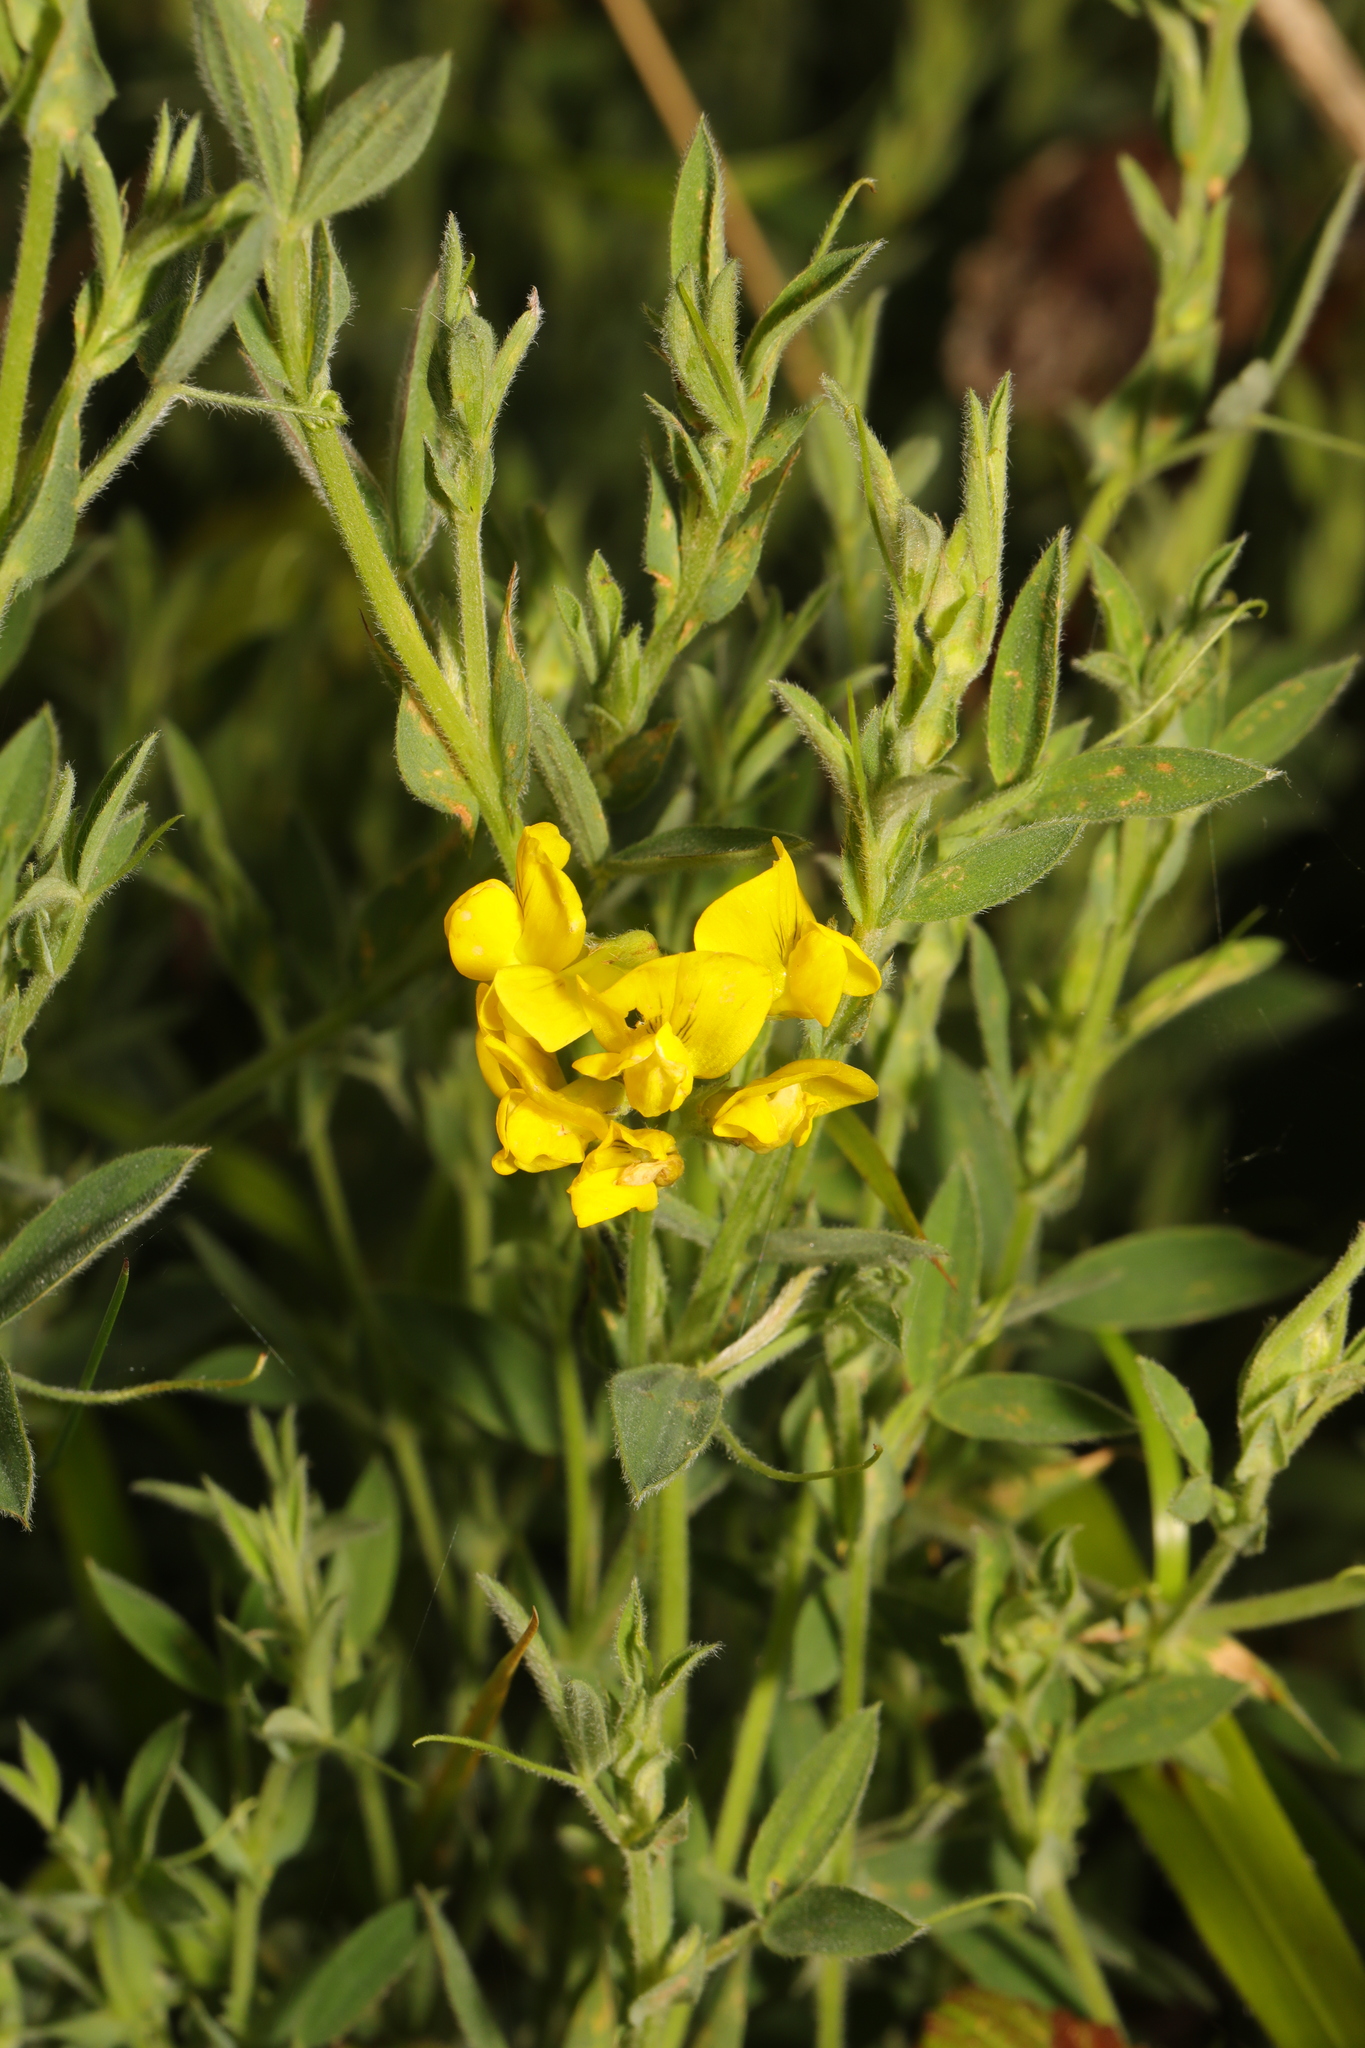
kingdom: Plantae
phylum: Tracheophyta
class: Magnoliopsida
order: Fabales
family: Fabaceae
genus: Lathyrus
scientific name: Lathyrus pratensis
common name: Meadow vetchling
